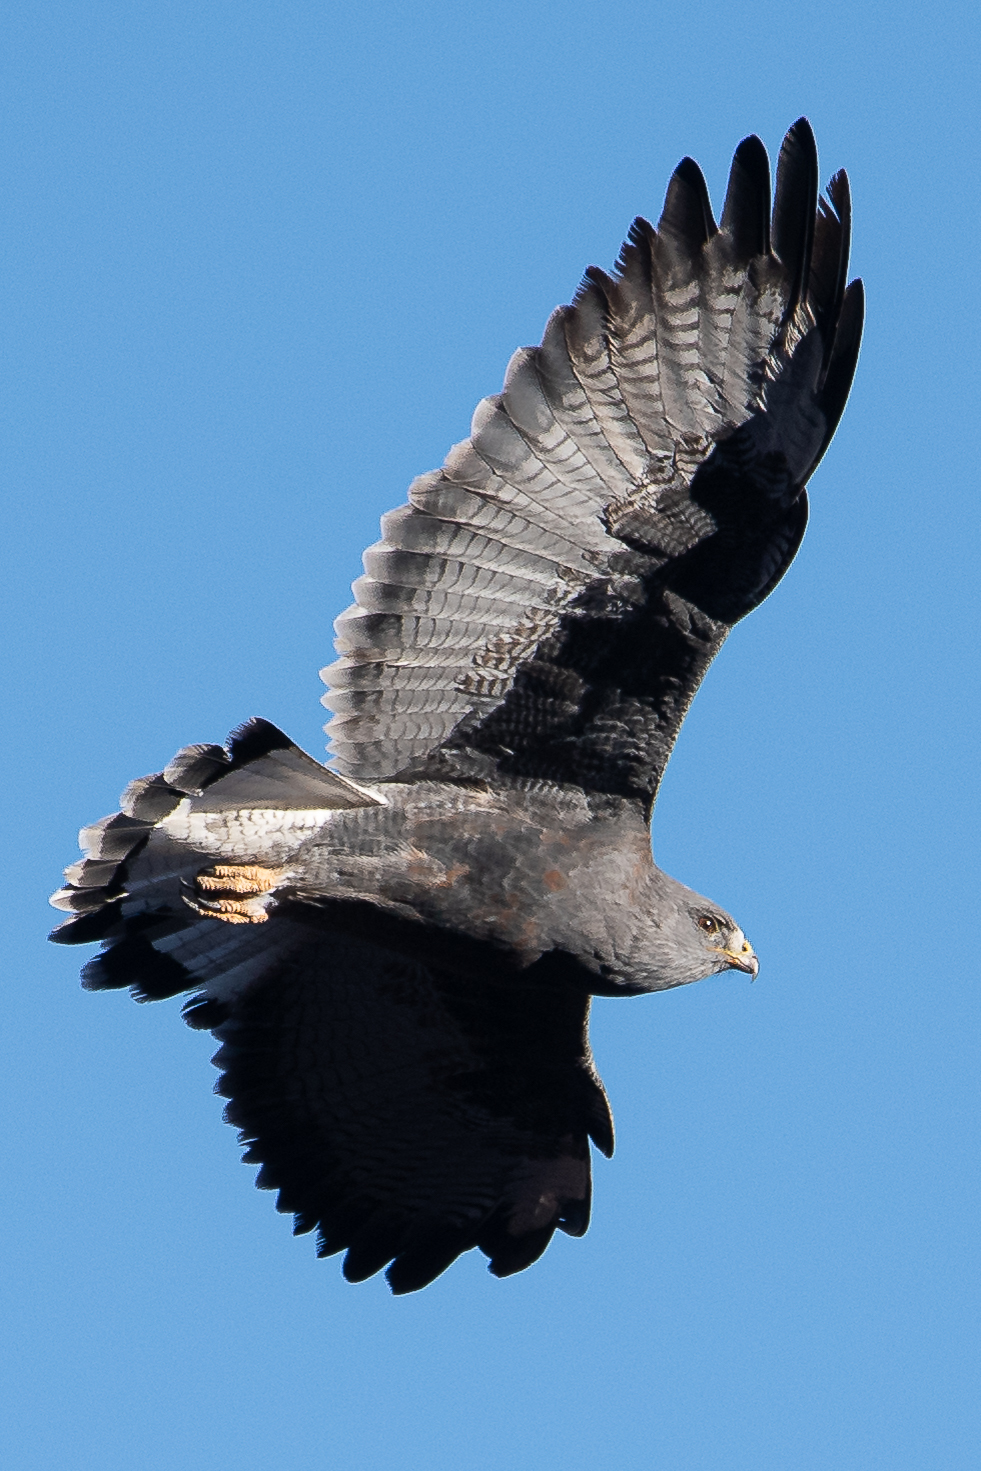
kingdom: Animalia
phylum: Chordata
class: Aves
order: Accipitriformes
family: Accipitridae
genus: Buteo
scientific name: Buteo polyosoma
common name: Variable hawk
